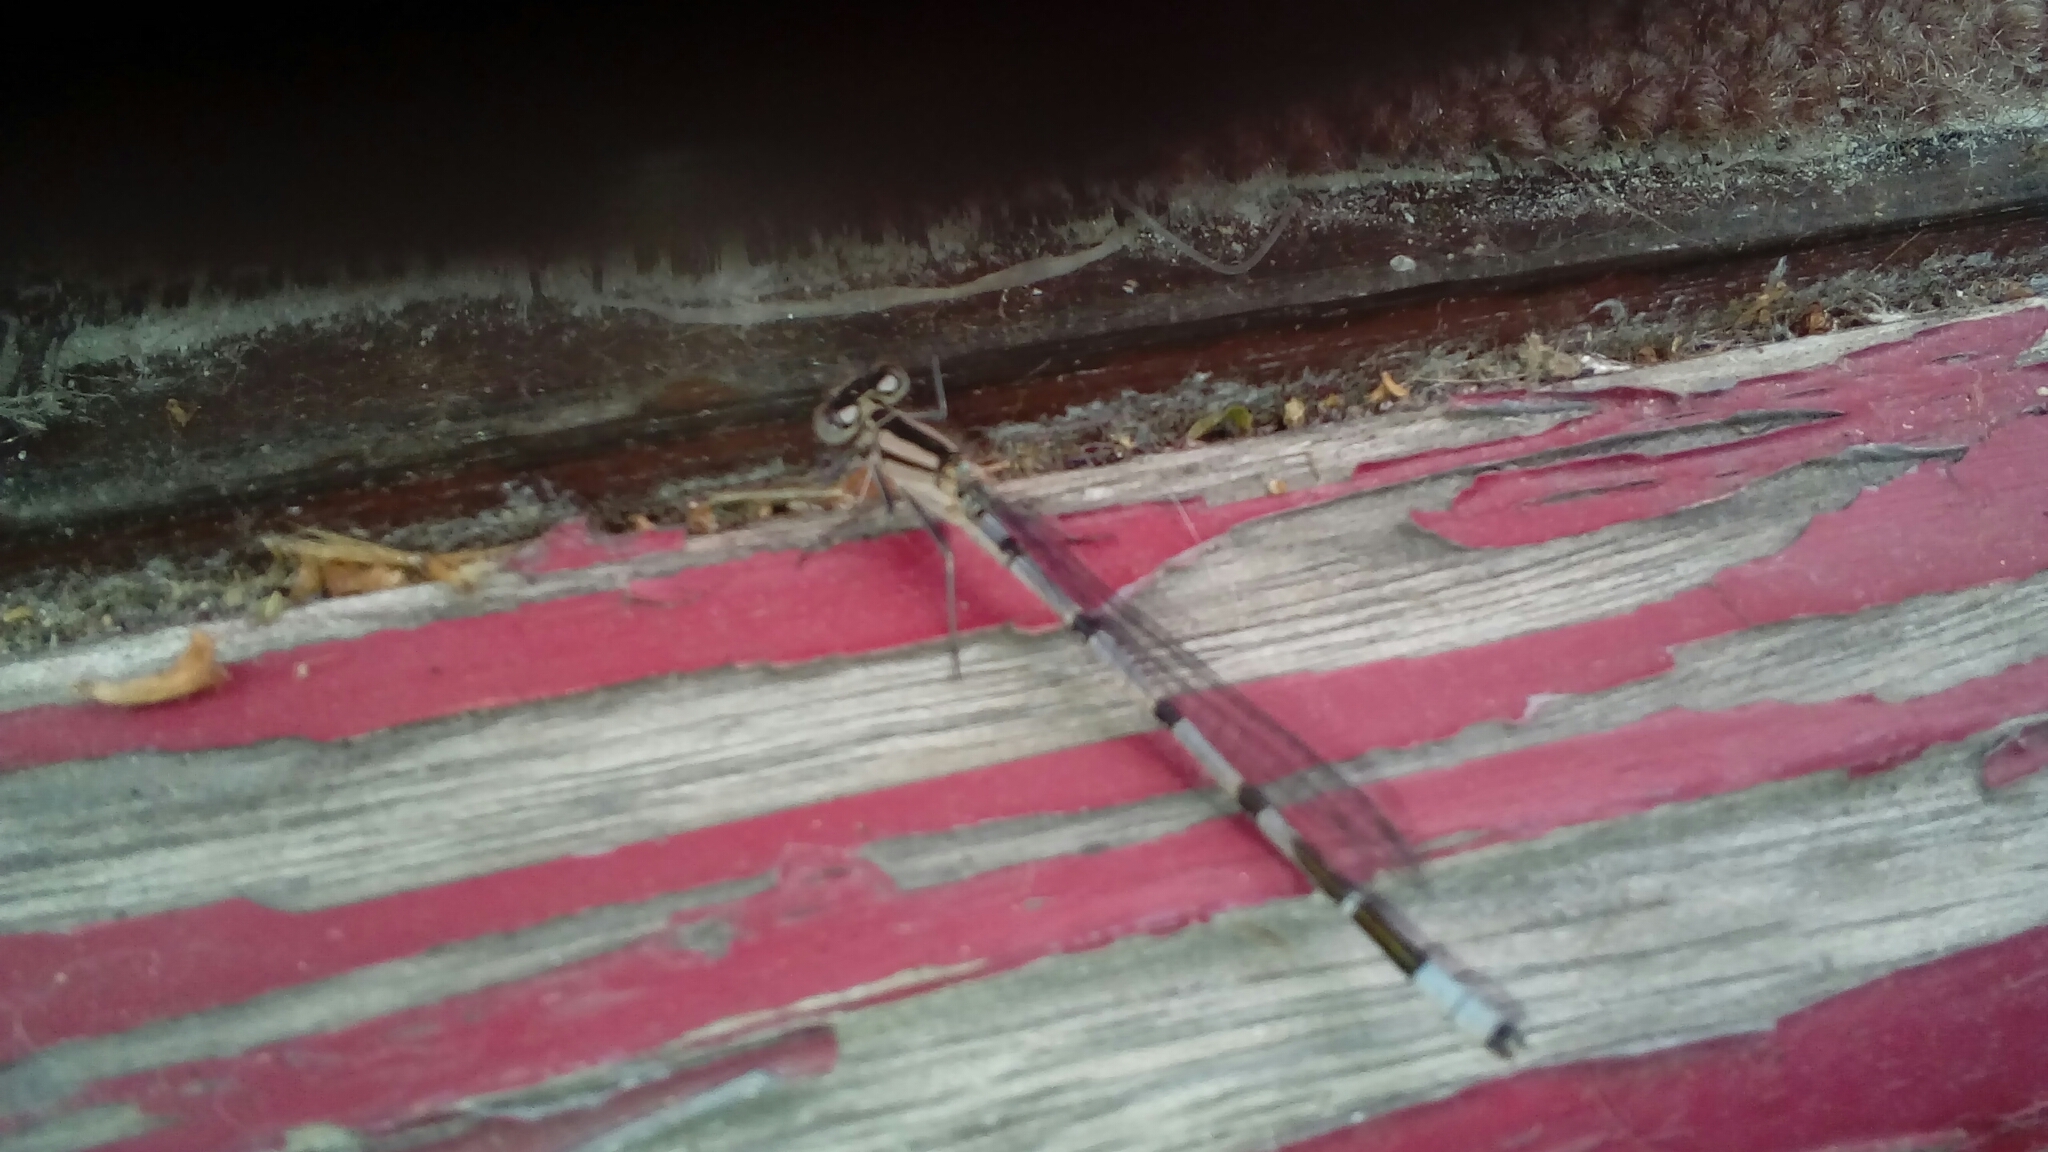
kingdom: Animalia
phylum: Arthropoda
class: Insecta
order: Odonata
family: Coenagrionidae
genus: Enallagma
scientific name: Enallagma cyathigerum
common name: Common blue damselfly
